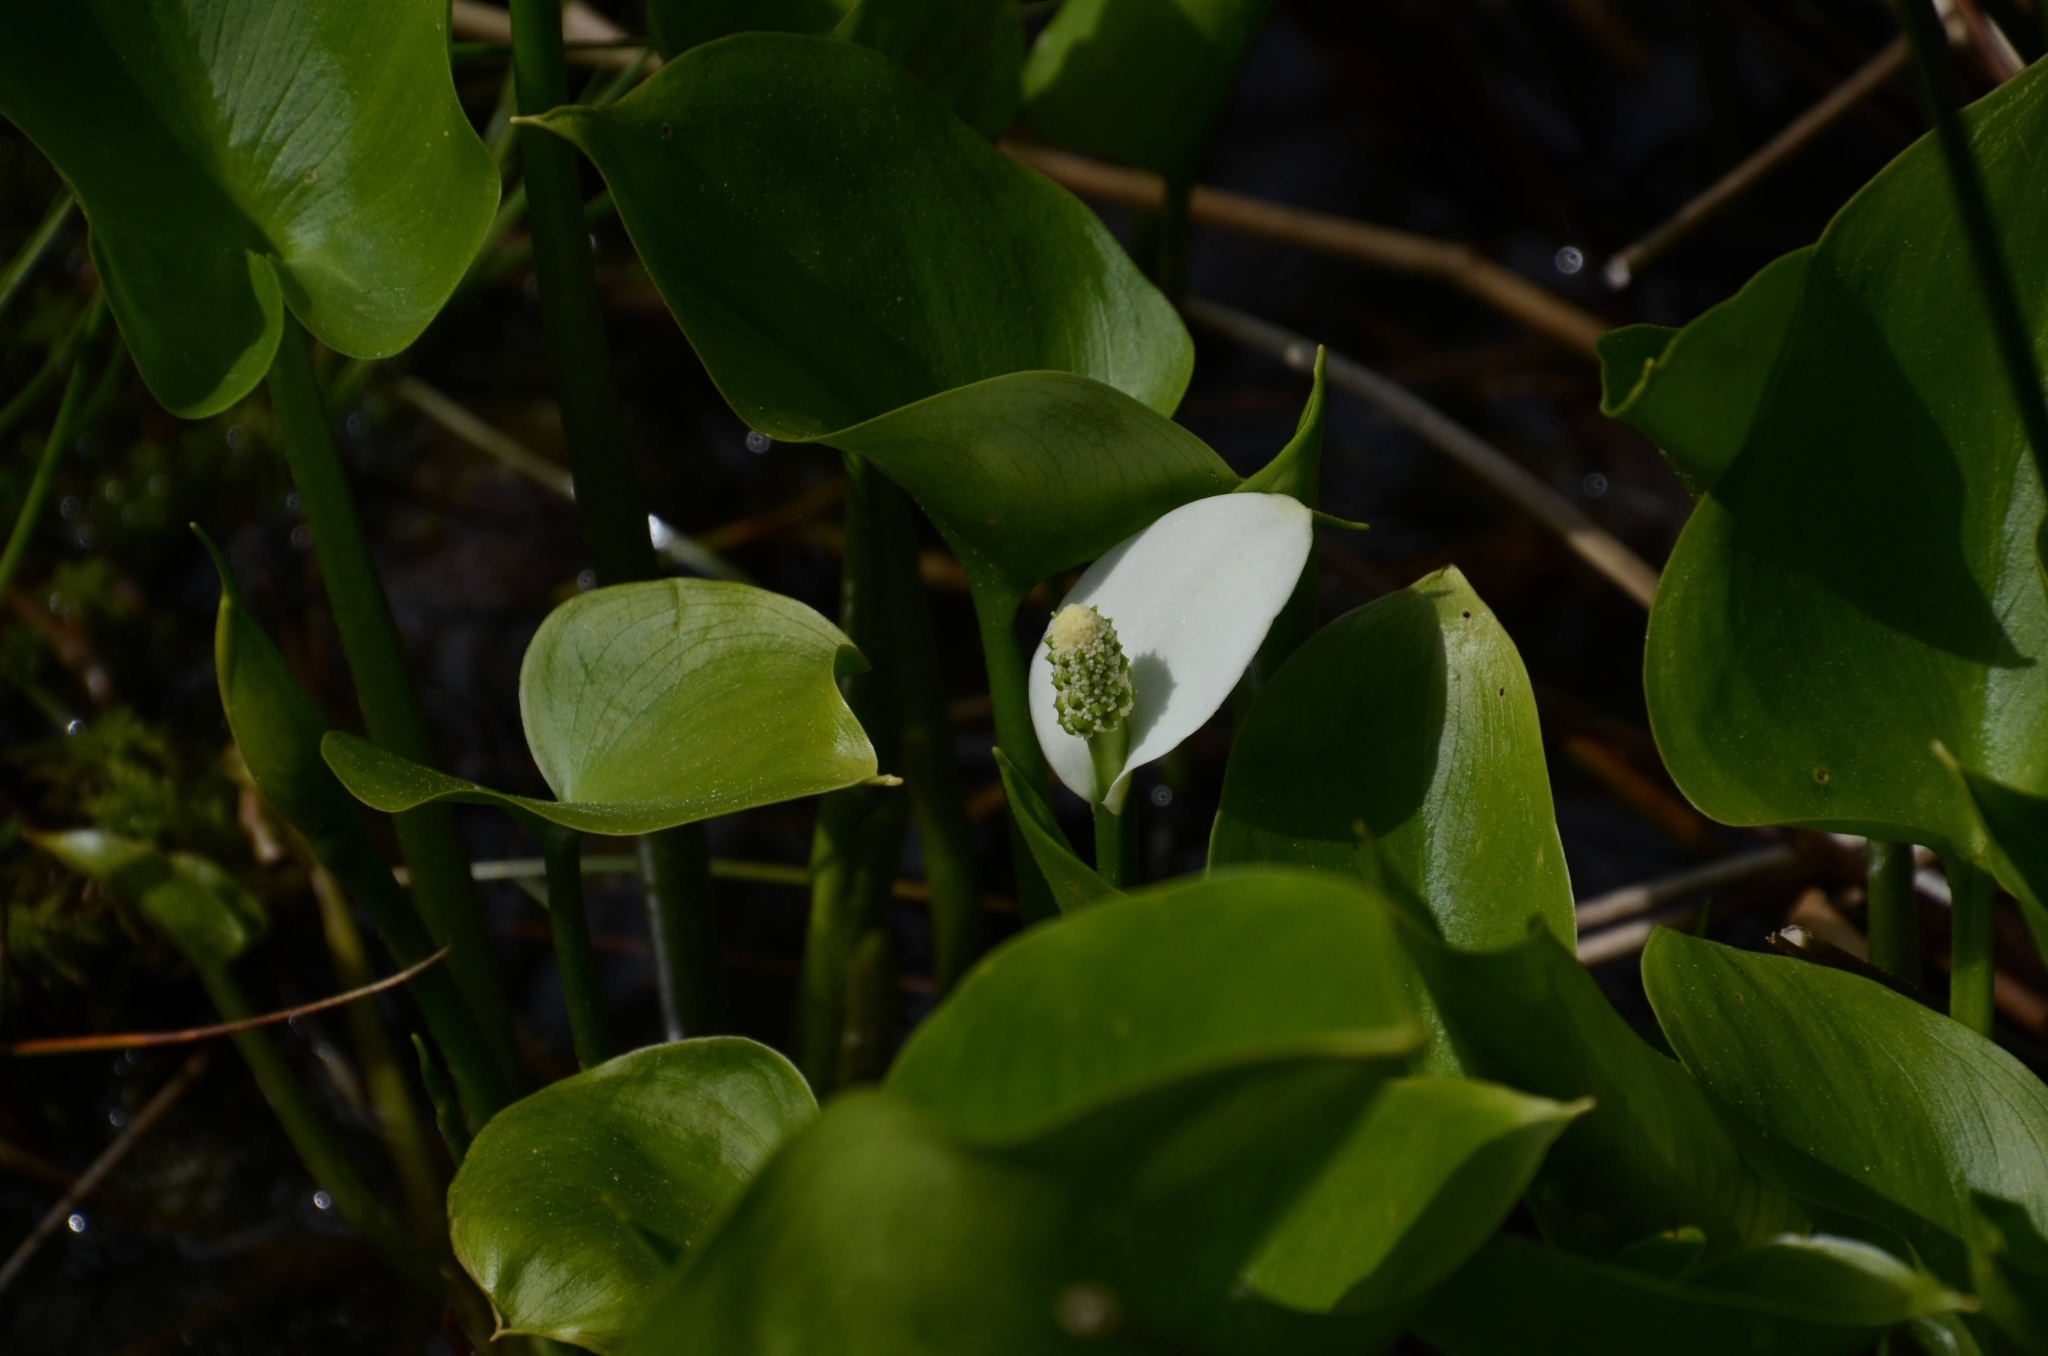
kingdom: Plantae
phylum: Tracheophyta
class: Liliopsida
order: Alismatales
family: Araceae
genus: Calla
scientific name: Calla palustris
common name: Bog arum
